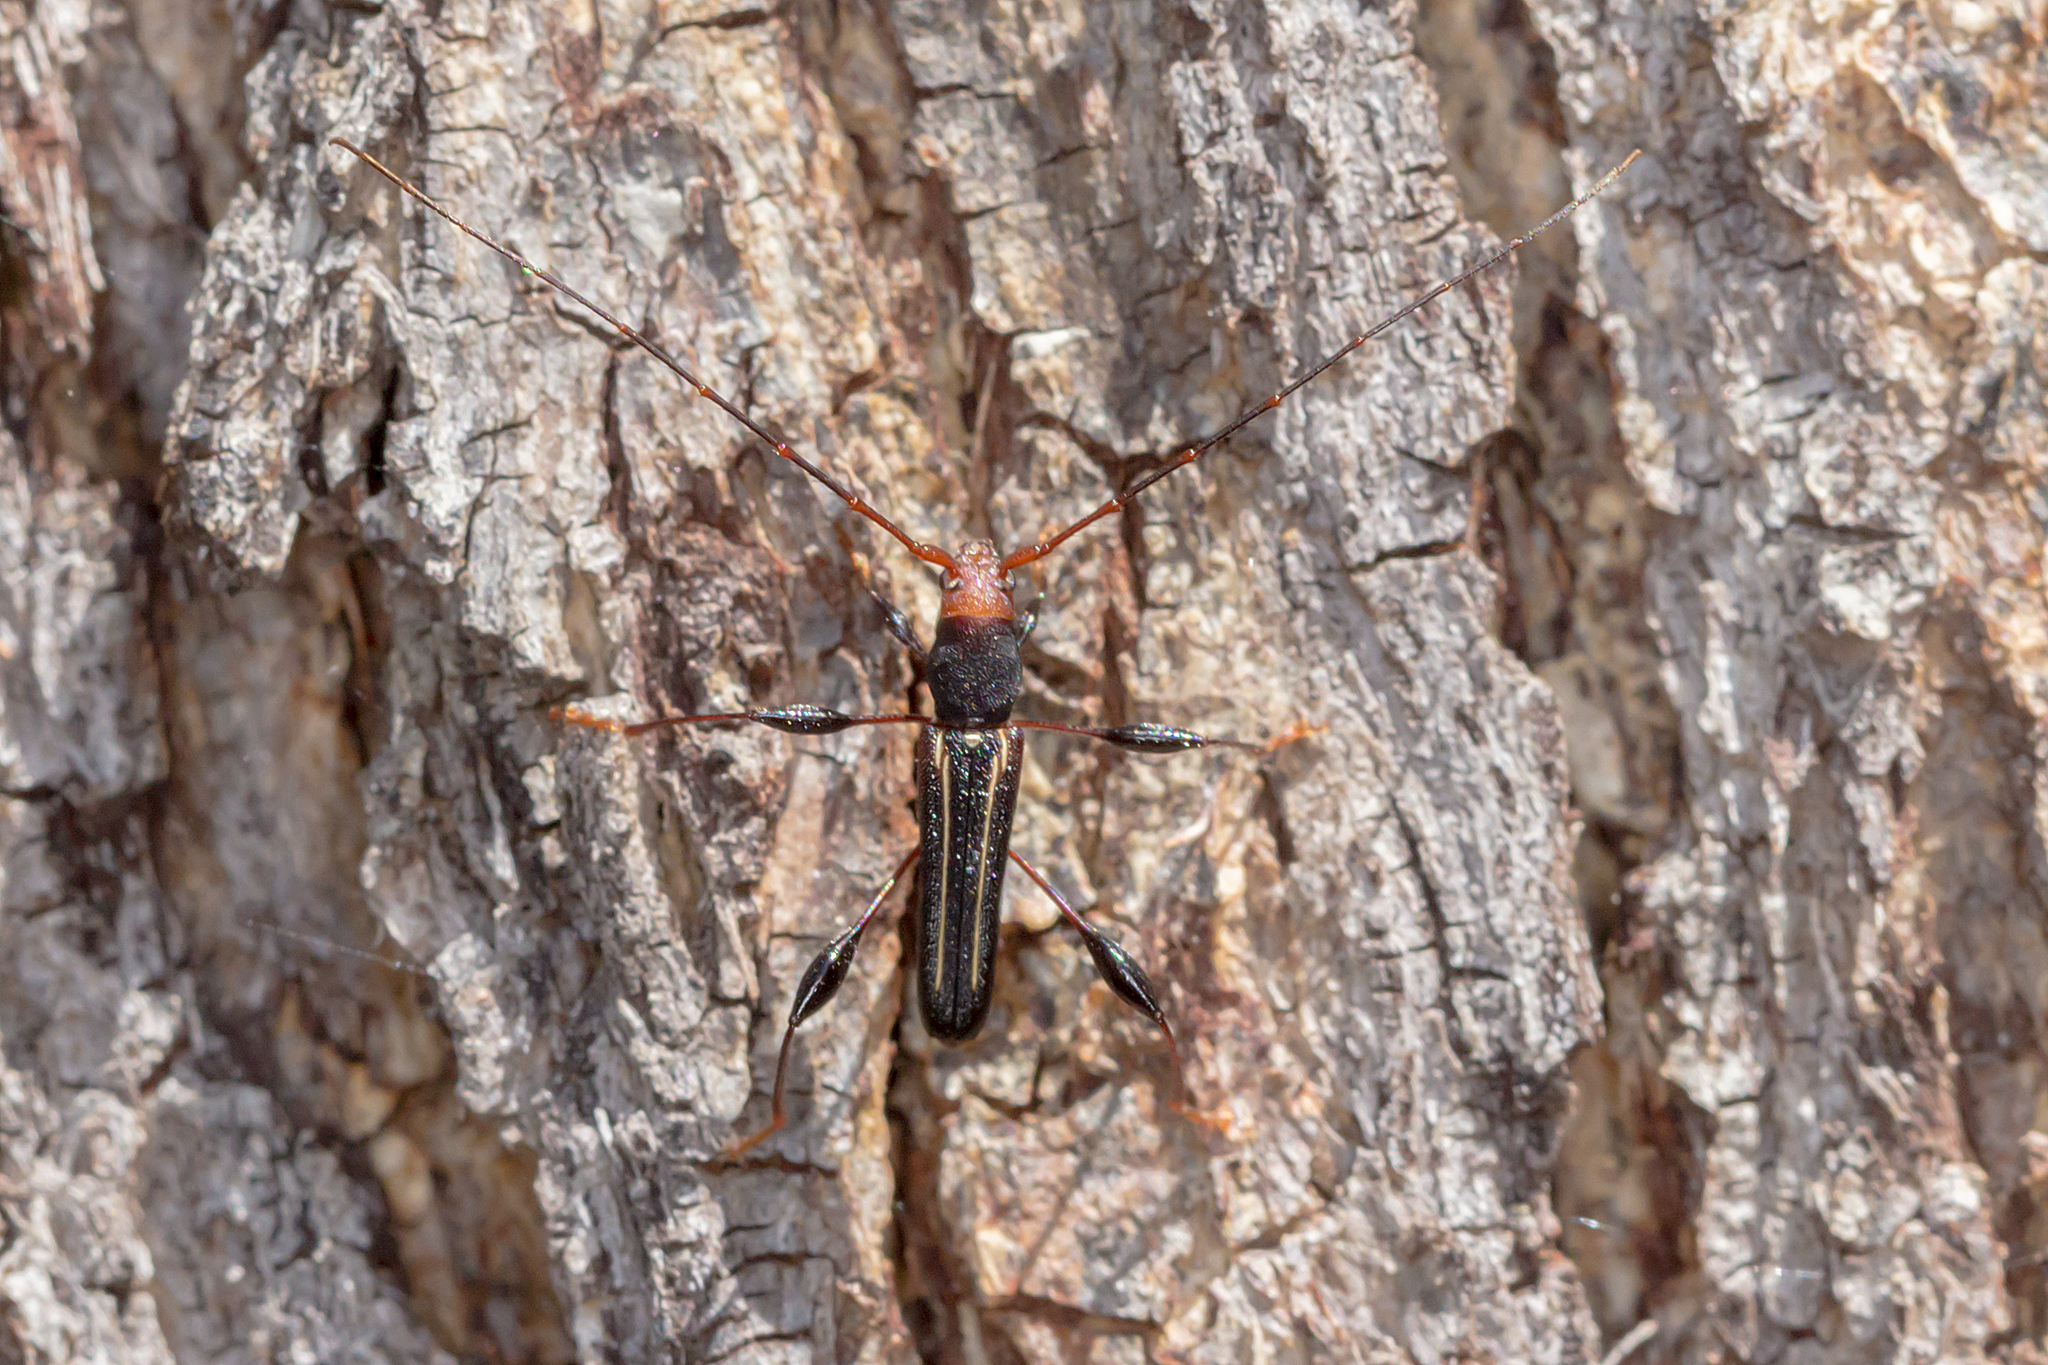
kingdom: Animalia
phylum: Arthropoda
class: Insecta
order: Coleoptera
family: Cerambycidae
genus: Amphirhoe
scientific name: Amphirhoe sloanei
